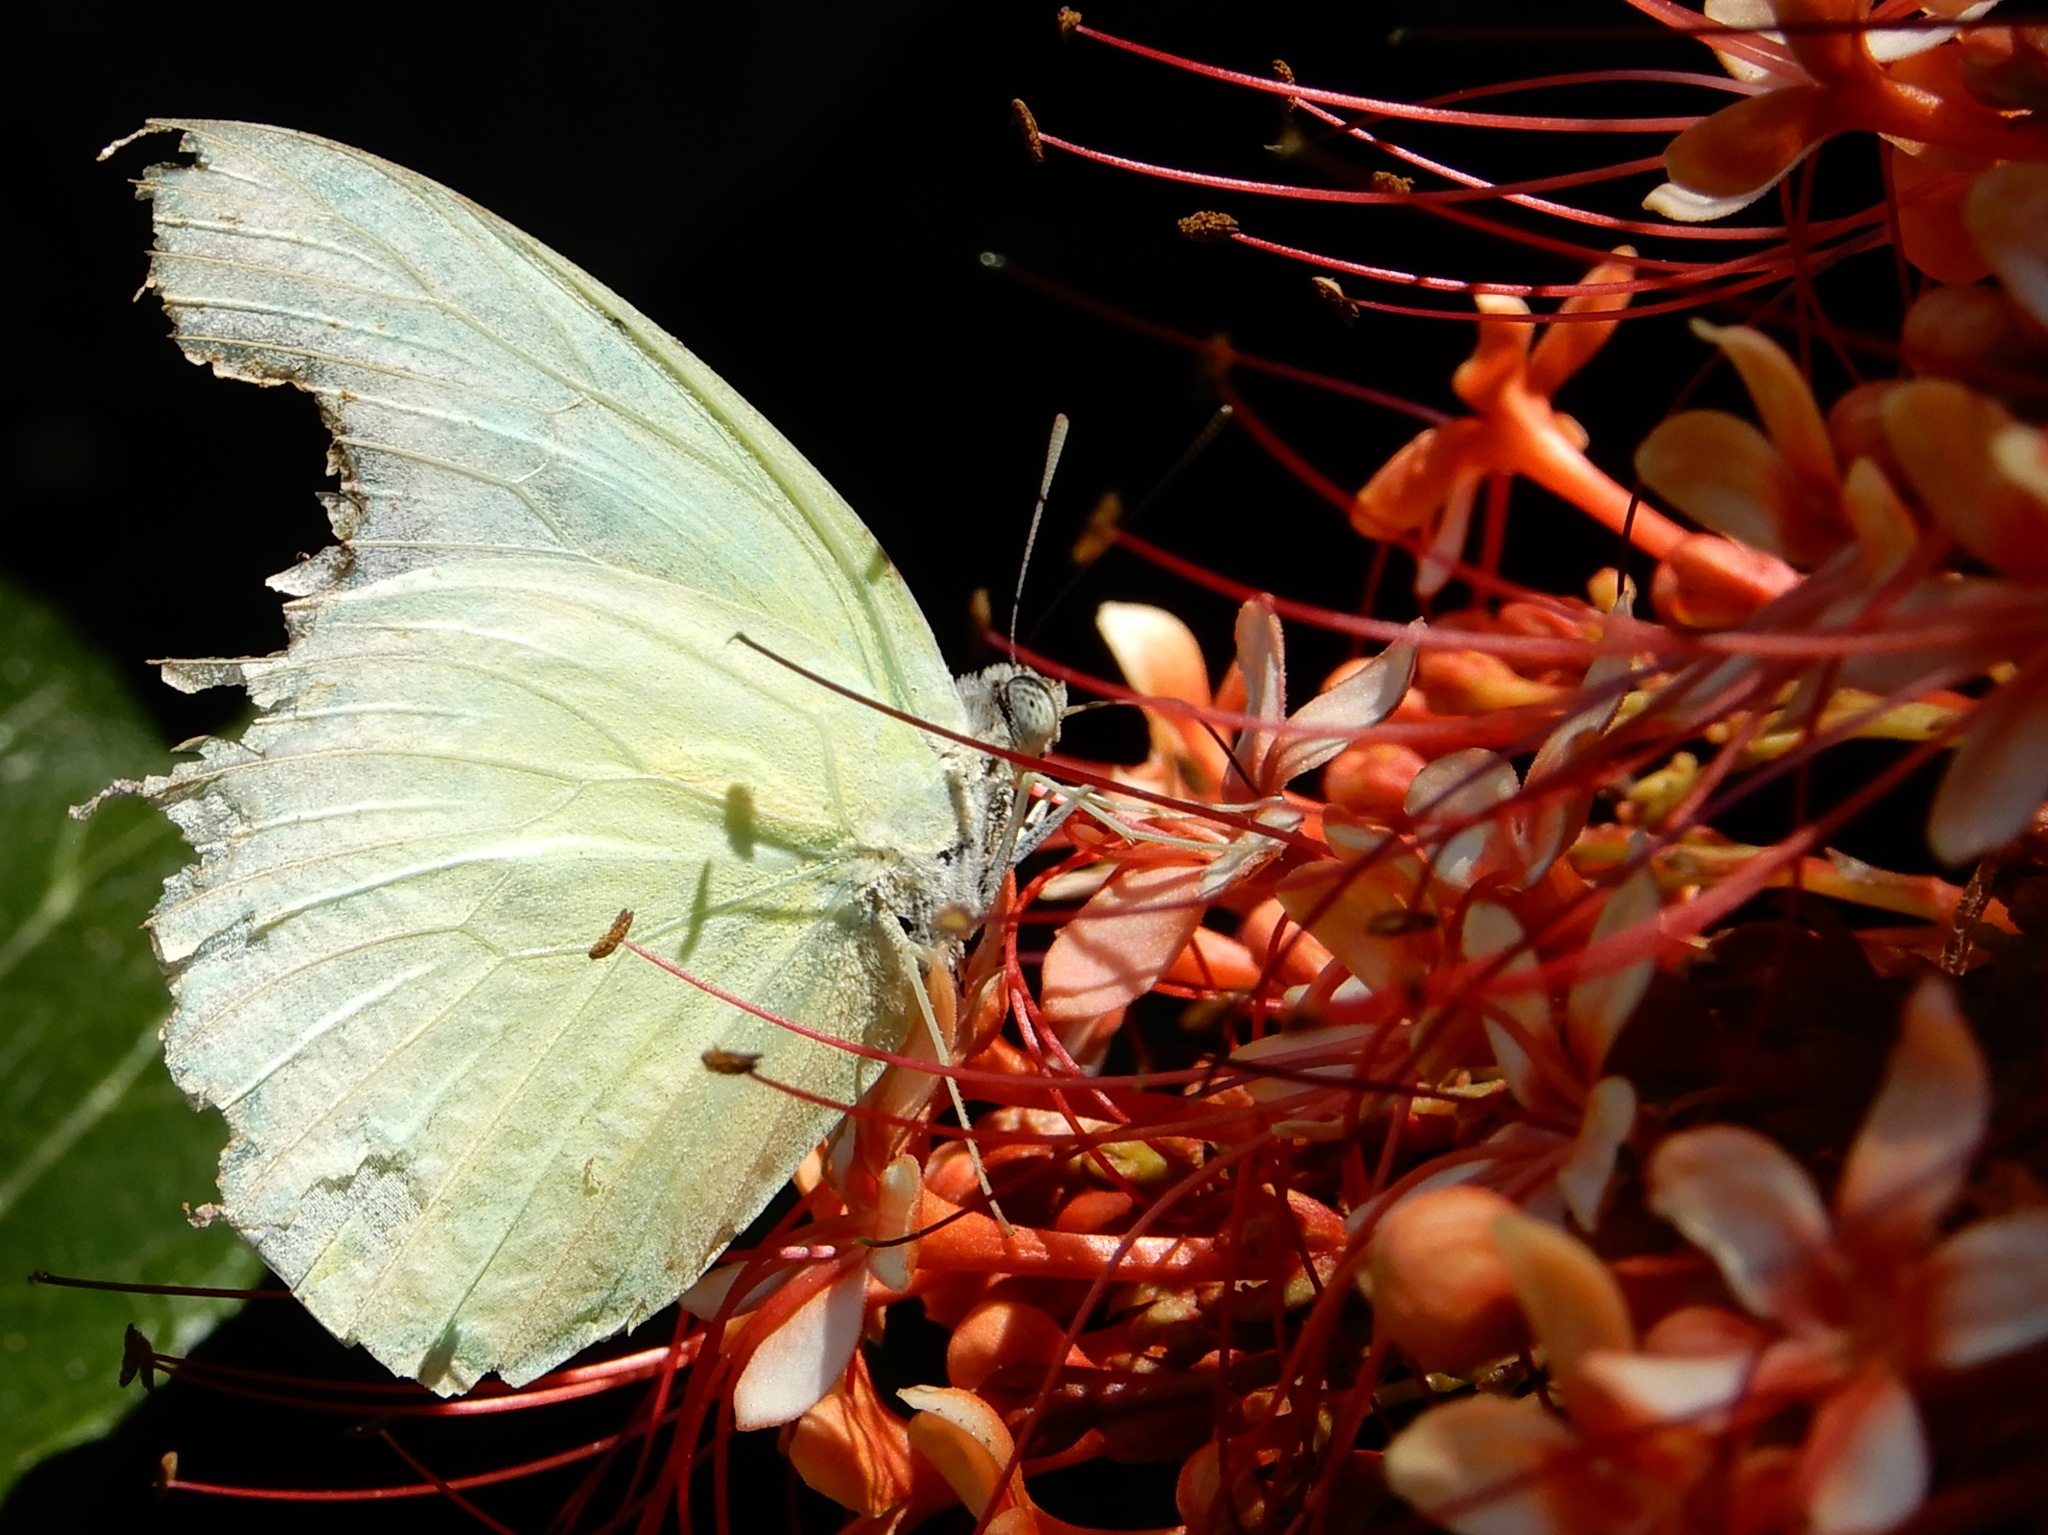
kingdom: Animalia
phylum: Arthropoda
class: Insecta
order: Lepidoptera
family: Pieridae
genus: Catopsilia
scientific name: Catopsilia pomona
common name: Common emigrant
